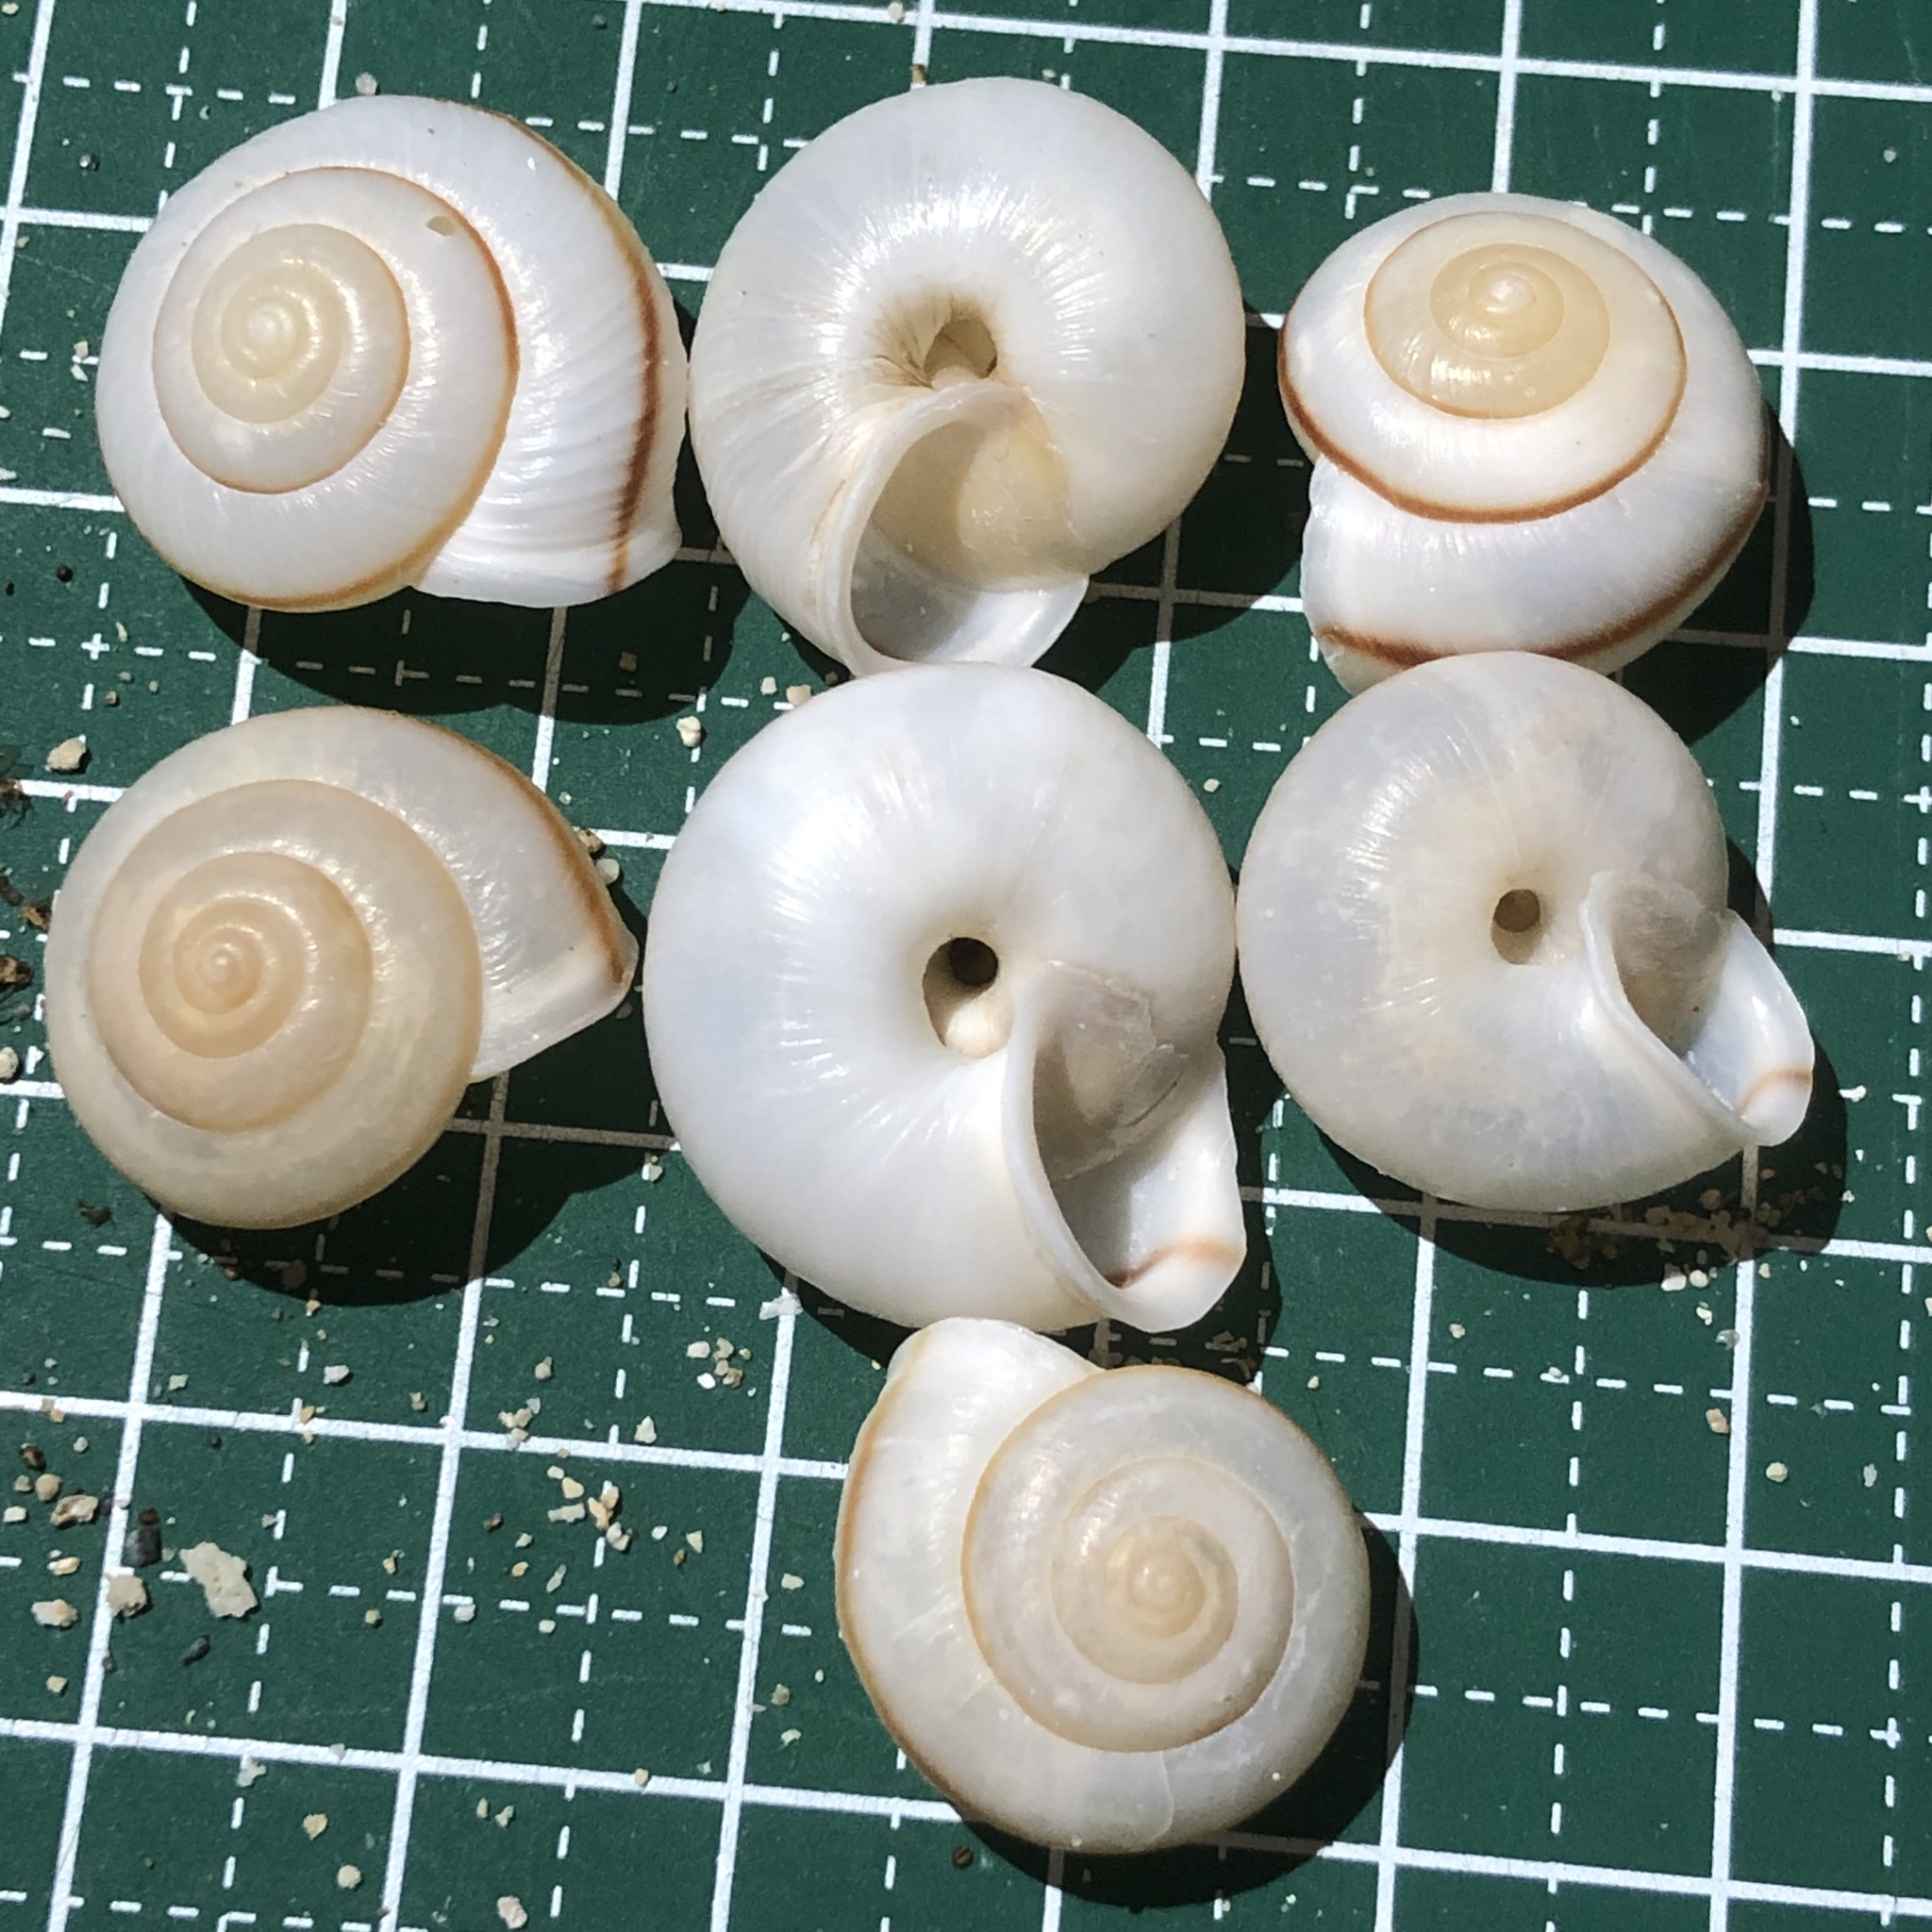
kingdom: Animalia
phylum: Mollusca
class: Gastropoda
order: Stylommatophora
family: Camaenidae
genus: Bradybaena
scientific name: Bradybaena circulus
